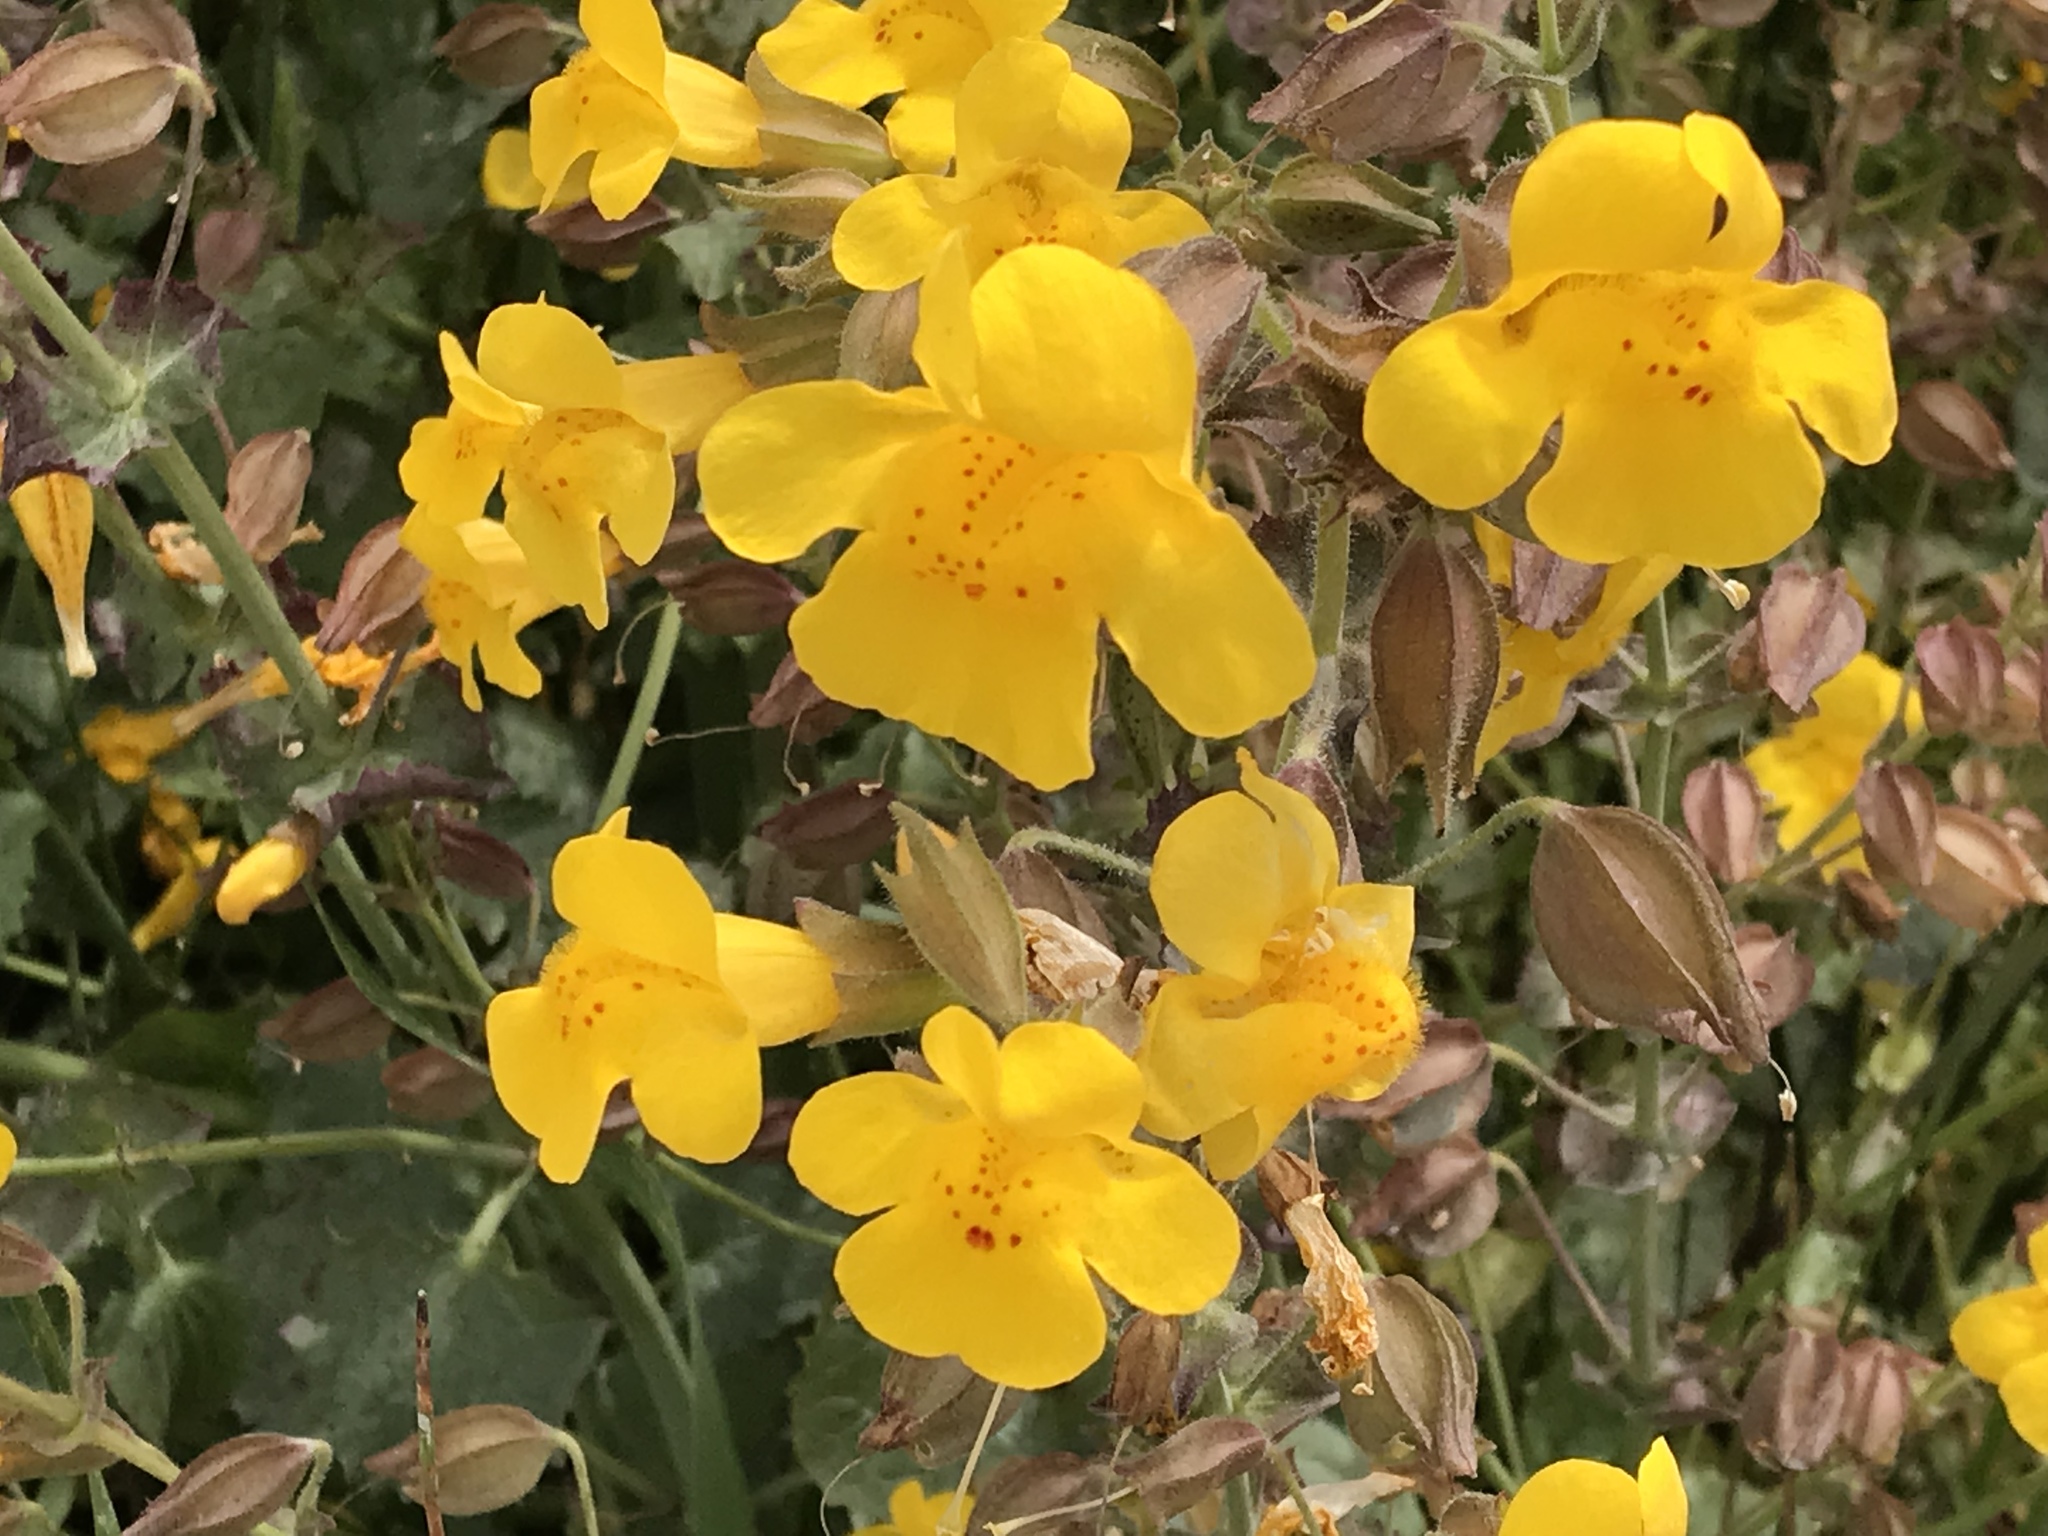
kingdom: Plantae
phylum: Tracheophyta
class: Magnoliopsida
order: Lamiales
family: Phrymaceae
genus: Erythranthe
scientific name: Erythranthe guttata
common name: Monkeyflower
